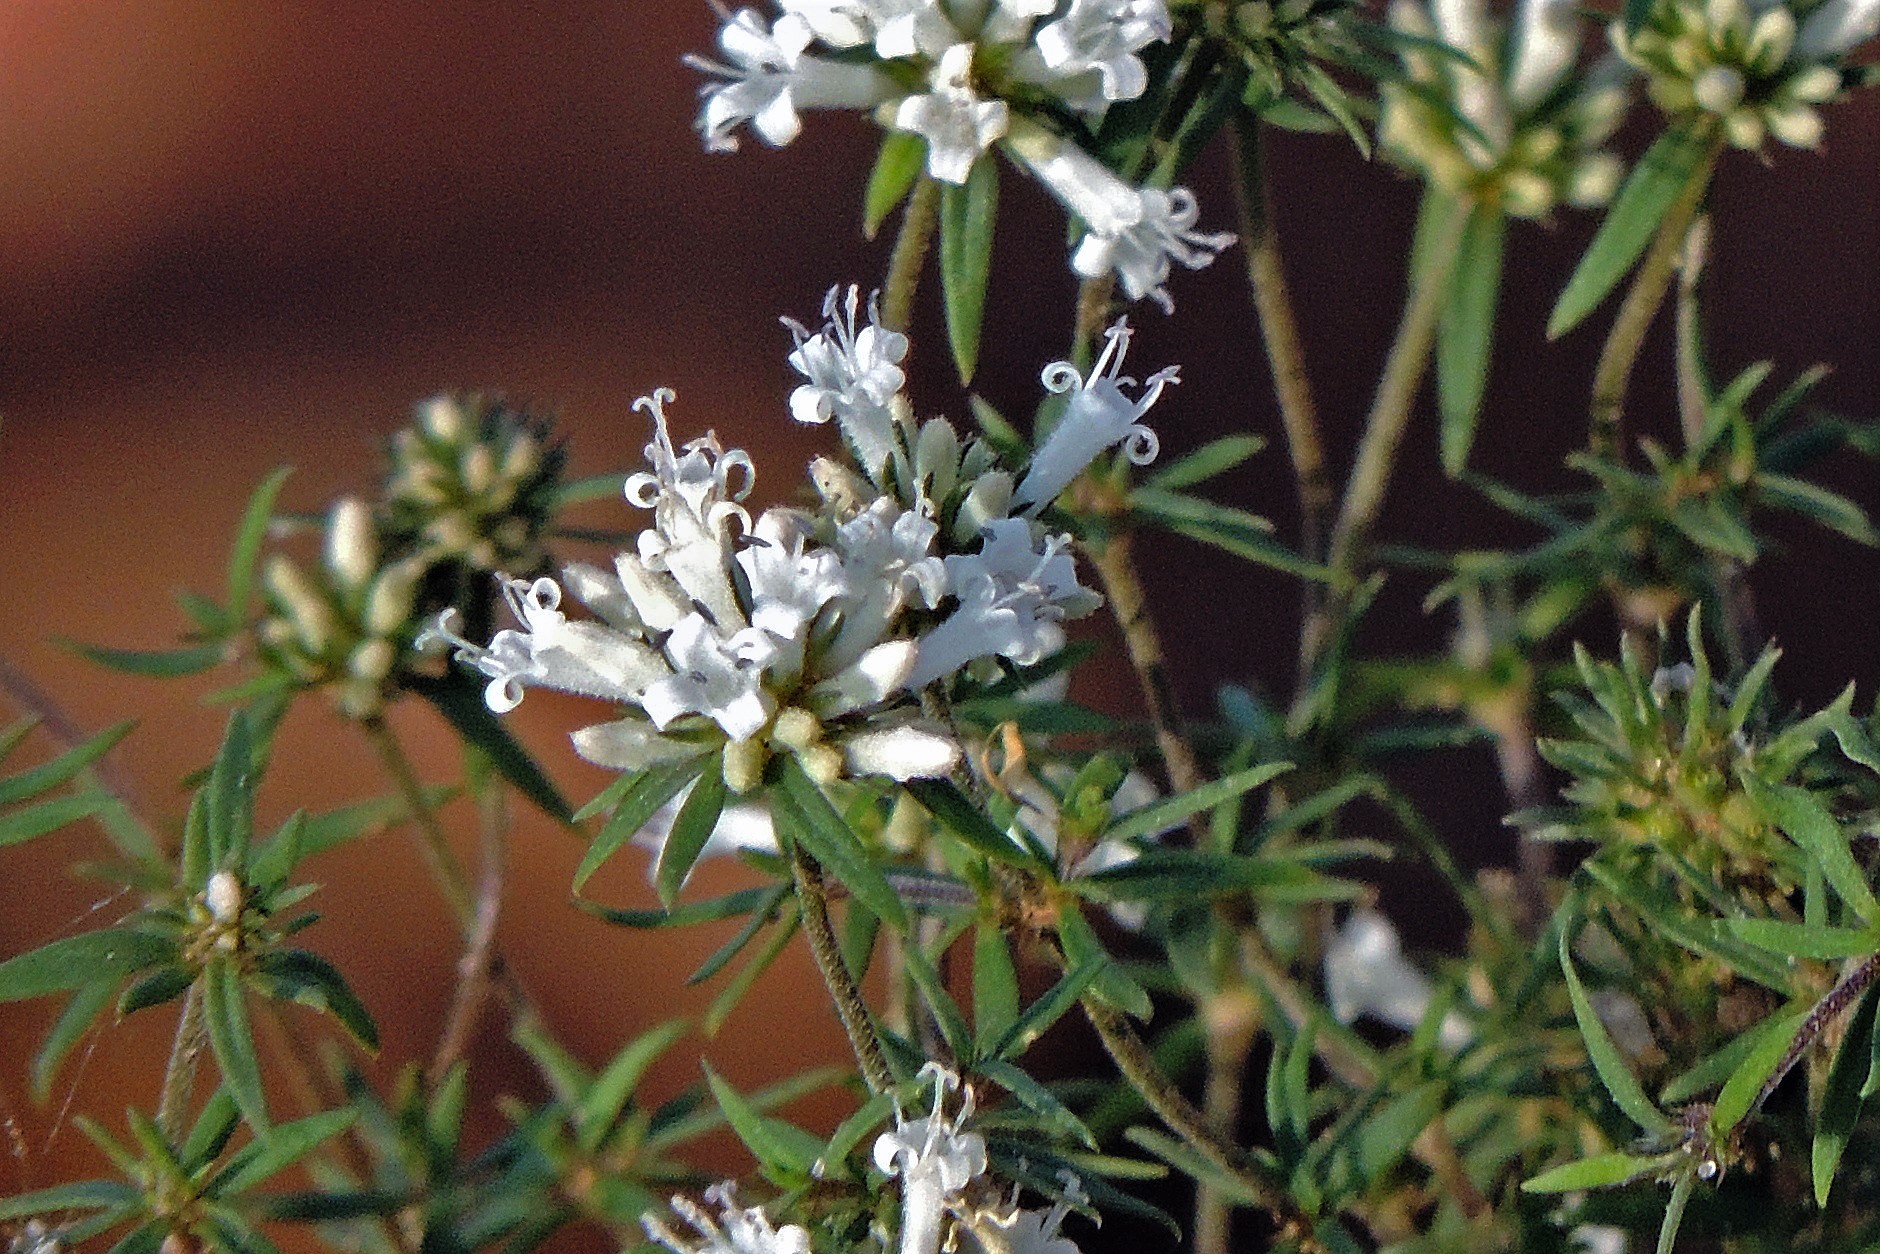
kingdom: Plantae
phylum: Tracheophyta
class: Magnoliopsida
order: Gentianales
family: Rubiaceae
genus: Staelia
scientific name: Staelia thymoides
